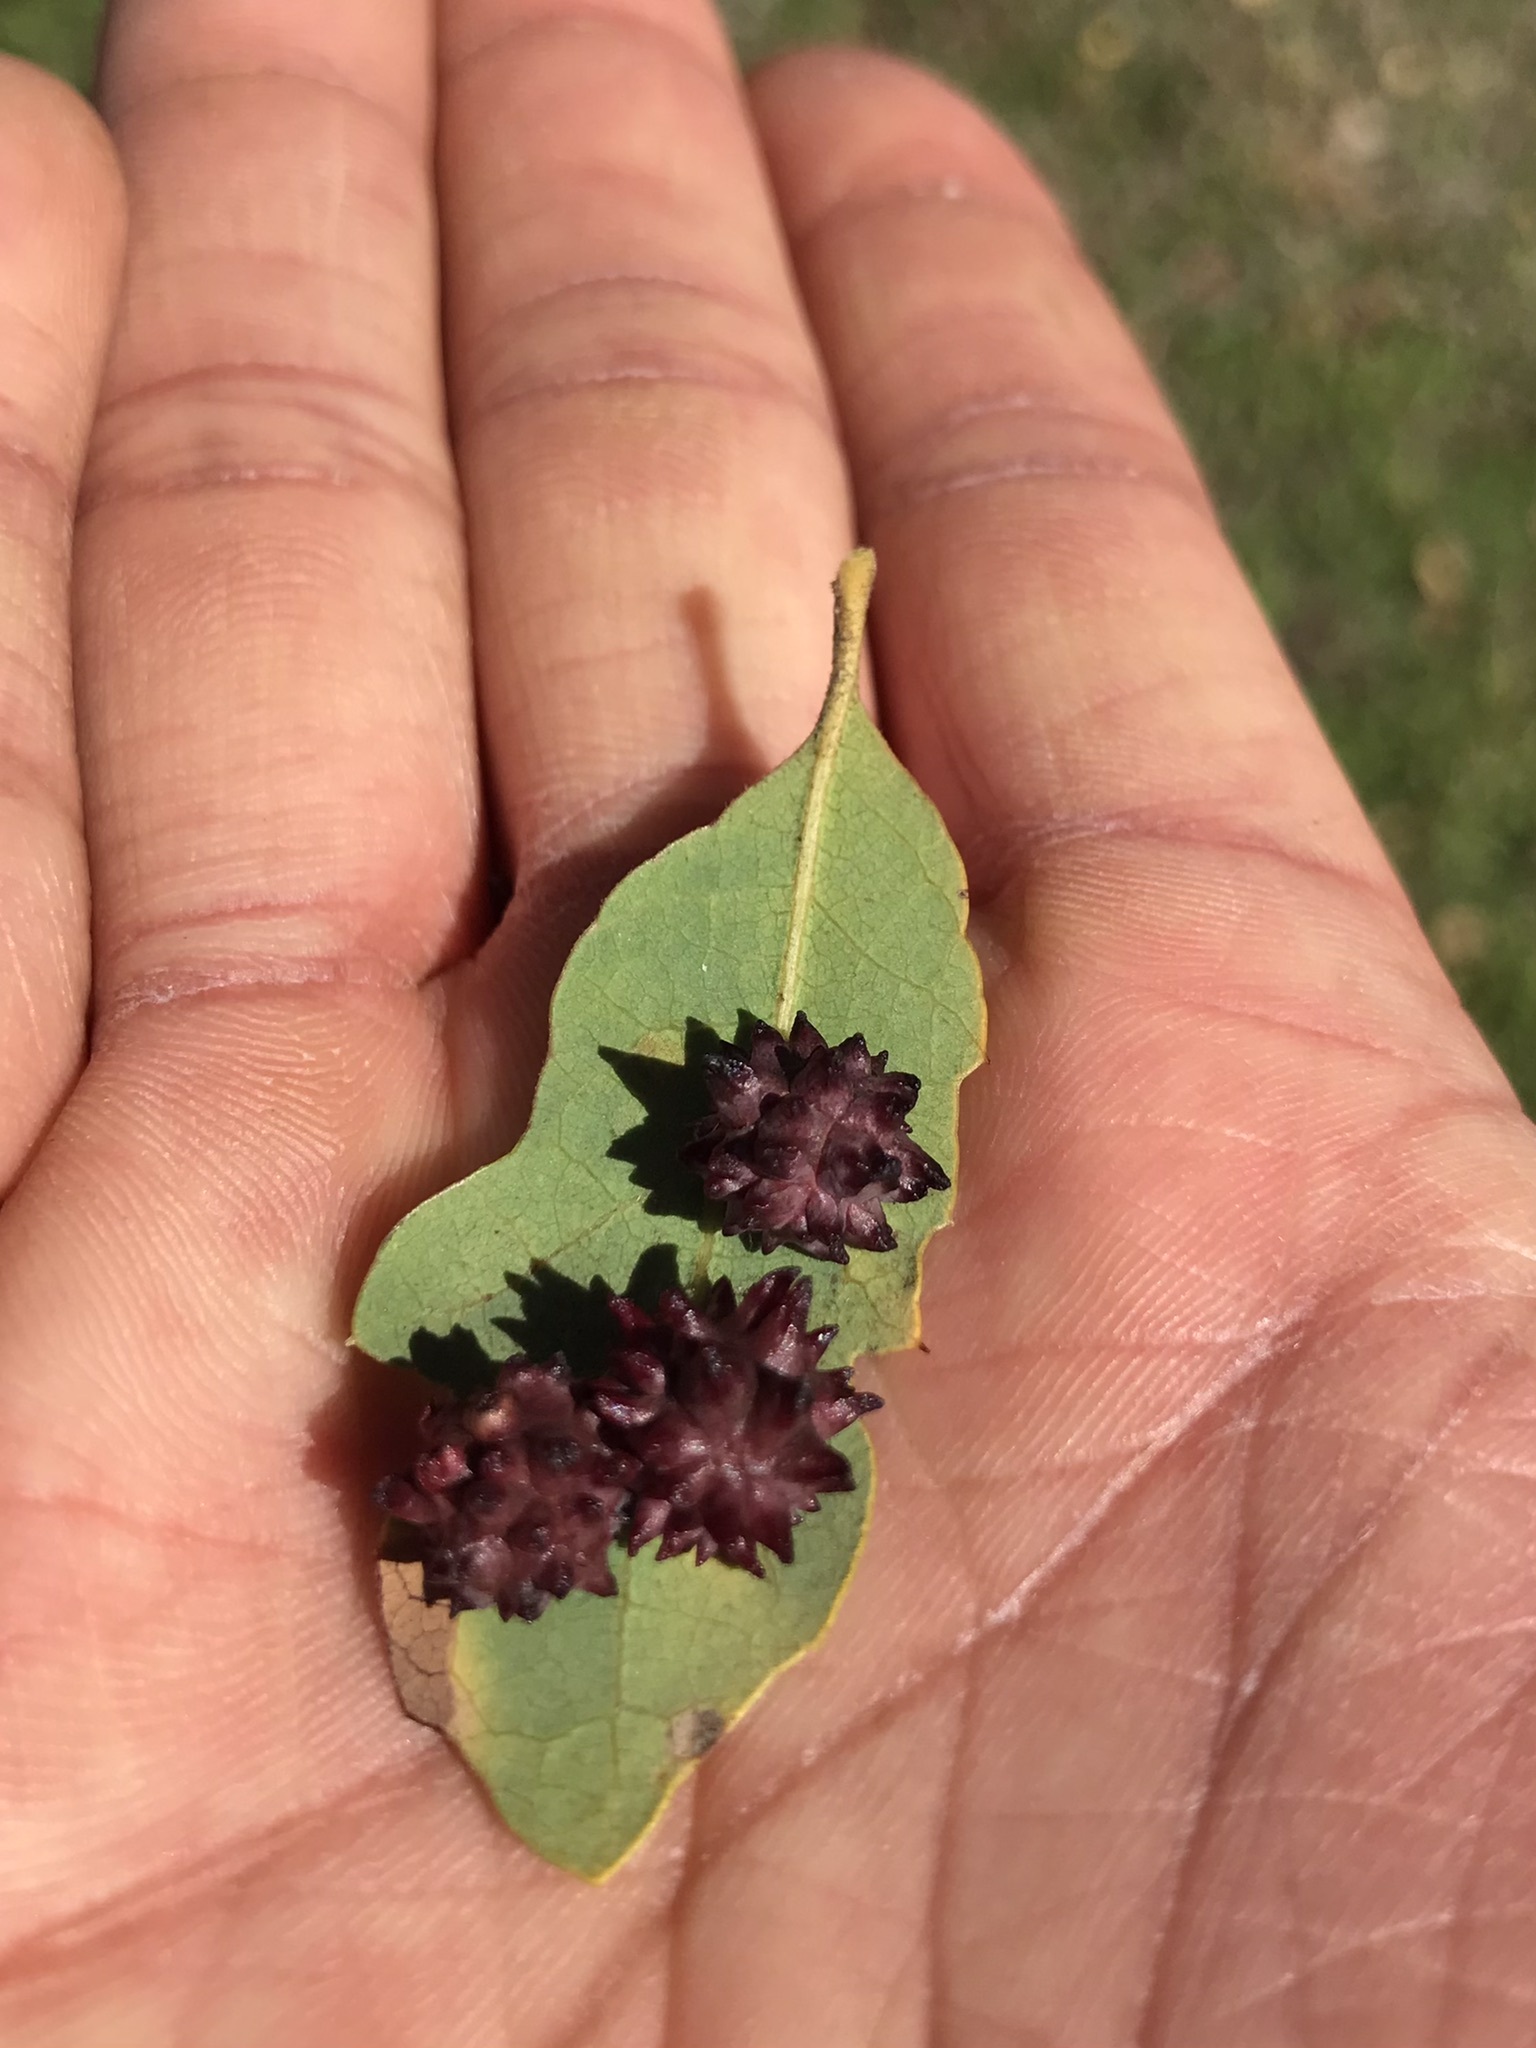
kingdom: Animalia
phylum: Arthropoda
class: Insecta
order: Hymenoptera
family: Cynipidae
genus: Cynips
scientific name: Cynips
